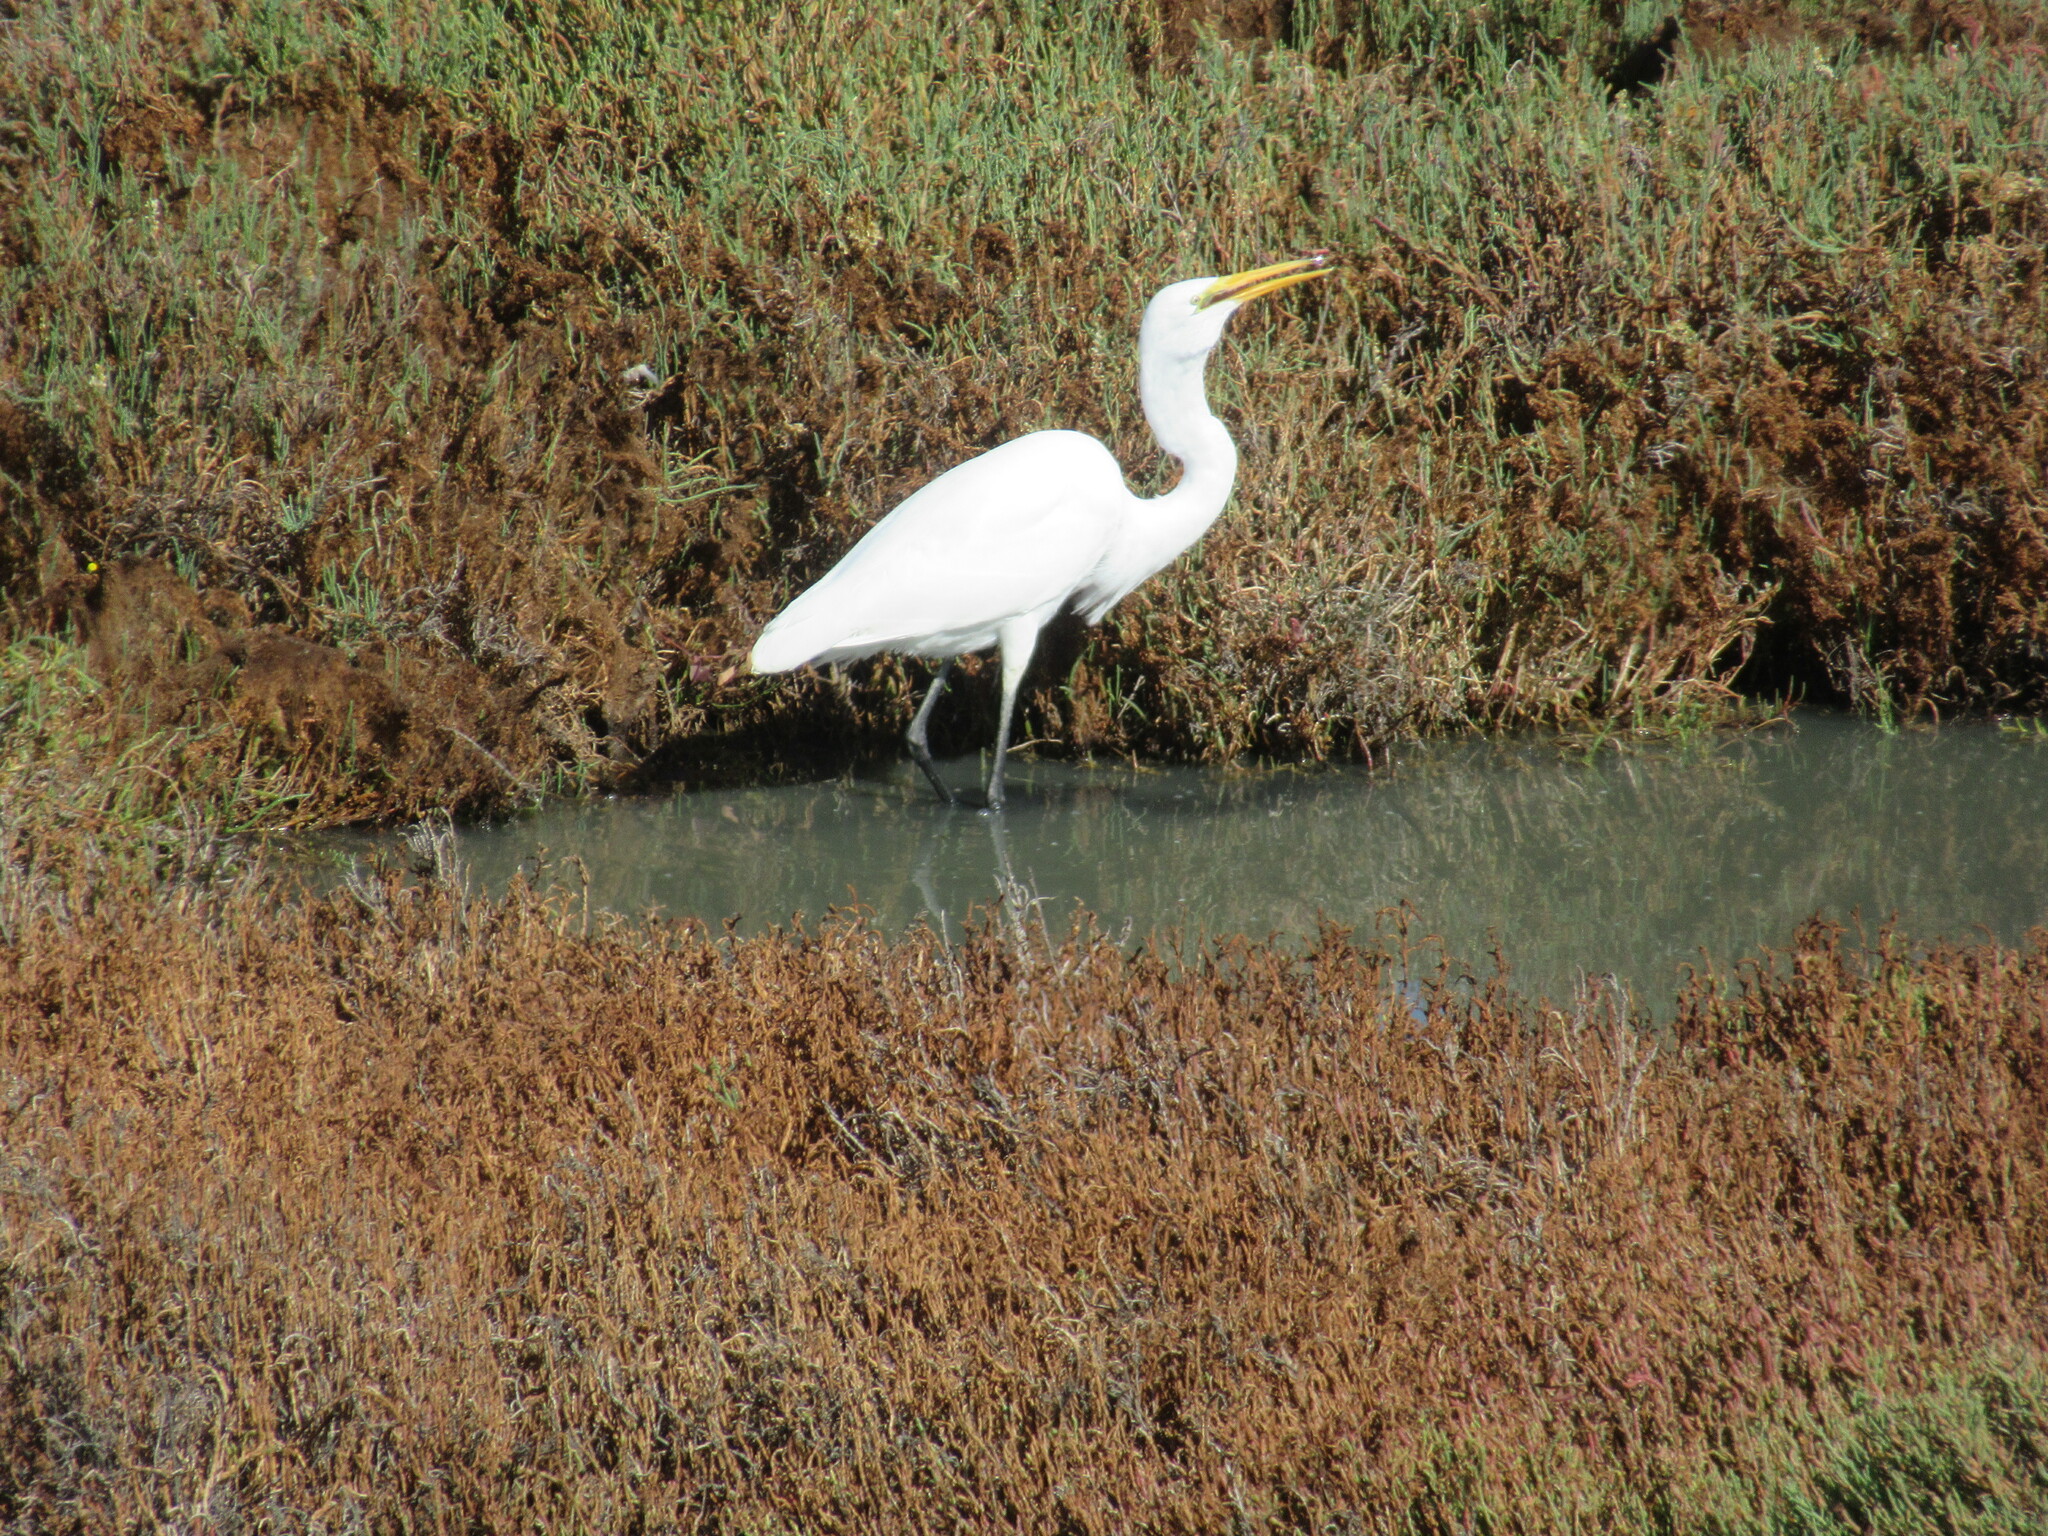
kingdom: Animalia
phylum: Chordata
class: Aves
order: Pelecaniformes
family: Ardeidae
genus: Ardea
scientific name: Ardea alba
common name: Great egret
